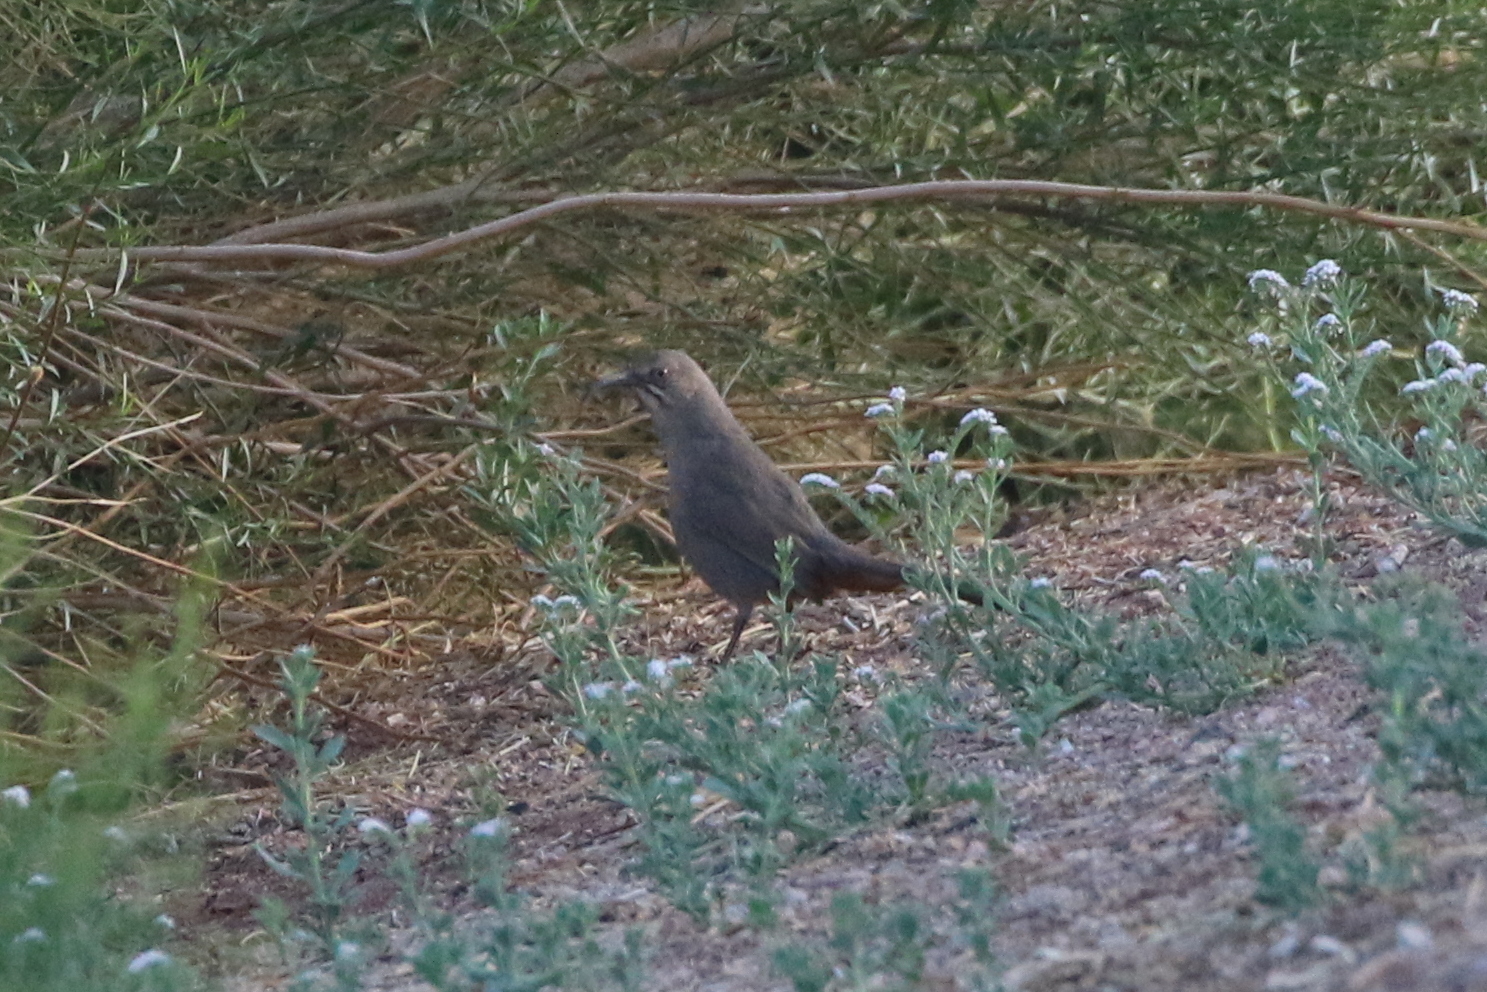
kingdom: Animalia
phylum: Chordata
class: Aves
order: Passeriformes
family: Mimidae
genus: Toxostoma
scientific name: Toxostoma crissale
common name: Crissal thrasher
